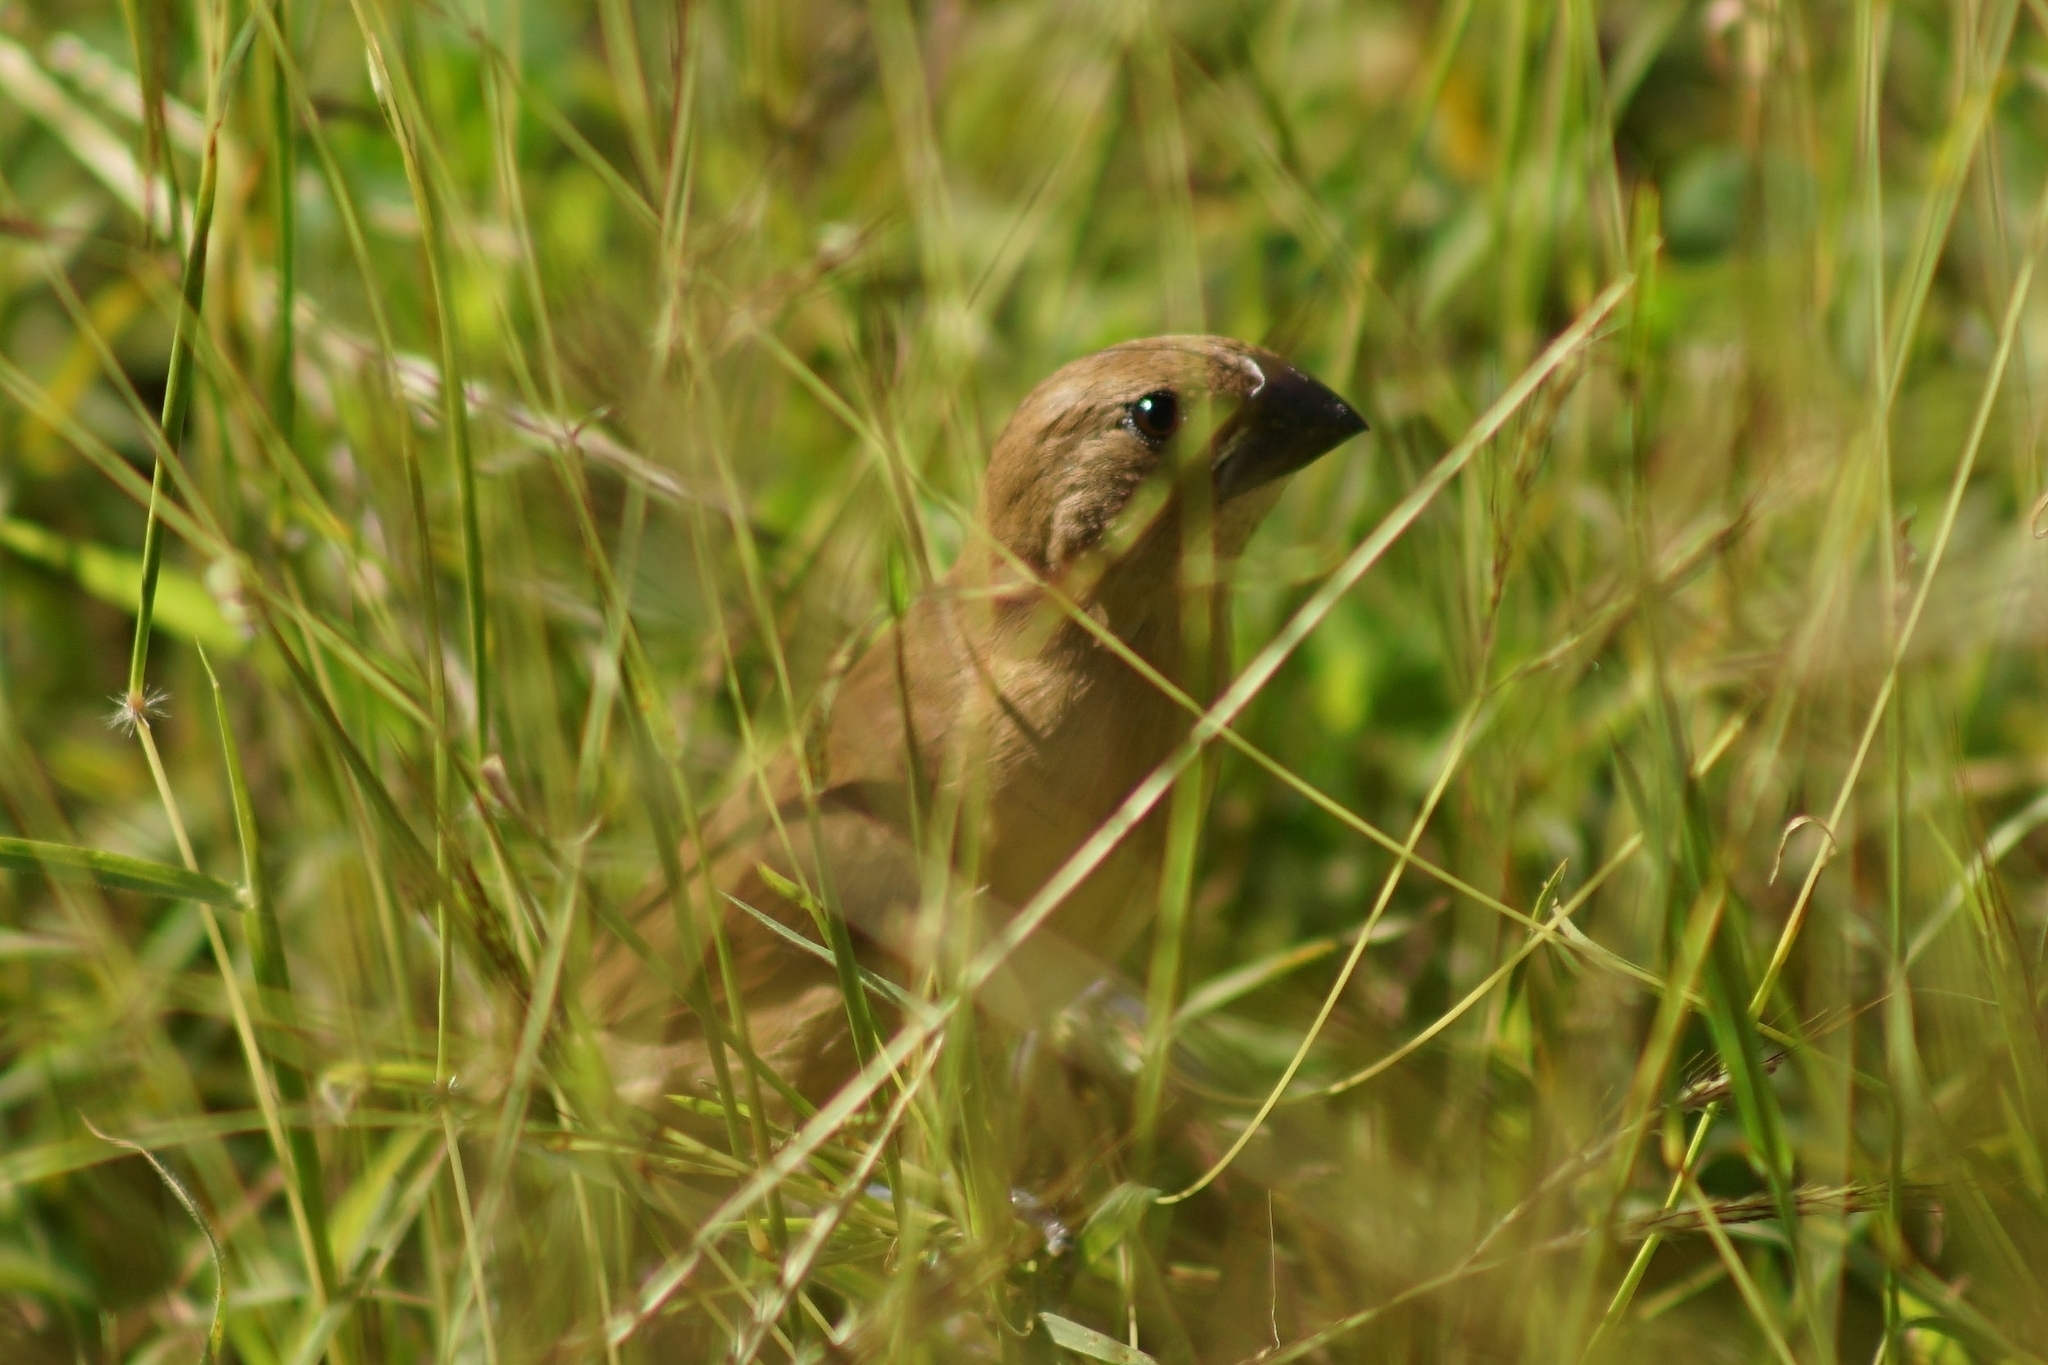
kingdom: Animalia
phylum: Chordata
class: Aves
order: Passeriformes
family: Estrildidae
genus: Lonchura
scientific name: Lonchura punctulata
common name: Scaly-breasted munia
